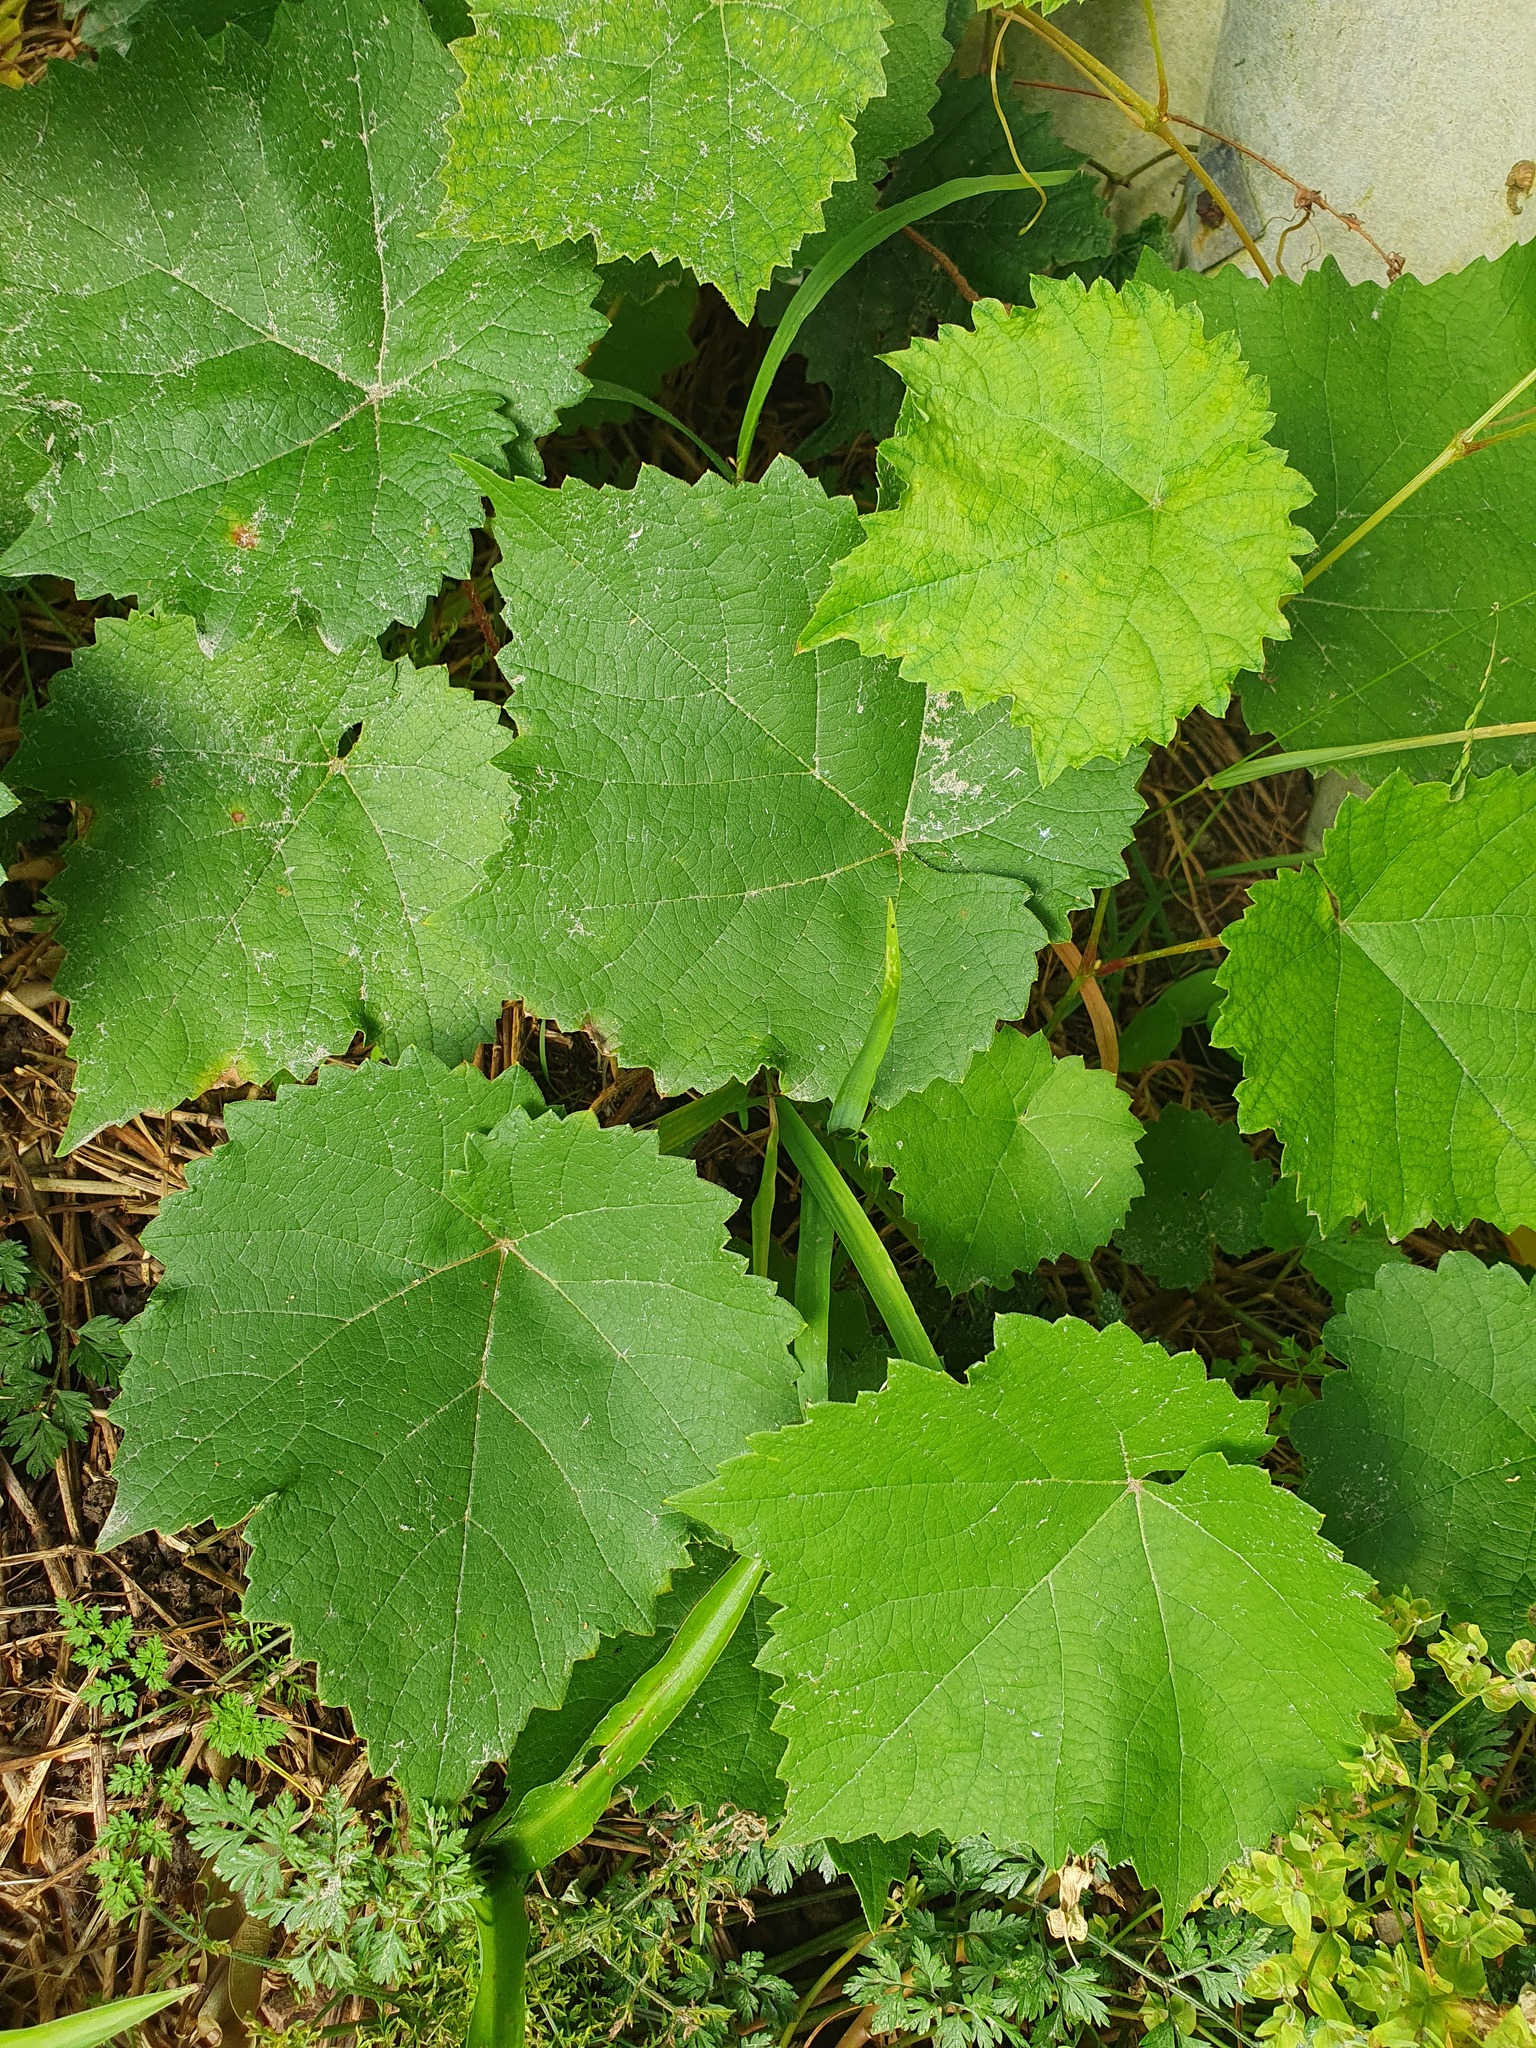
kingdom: Plantae
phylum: Tracheophyta
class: Magnoliopsida
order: Vitales
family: Vitaceae
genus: Vitis
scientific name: Vitis vinifera
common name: Grape-vine
